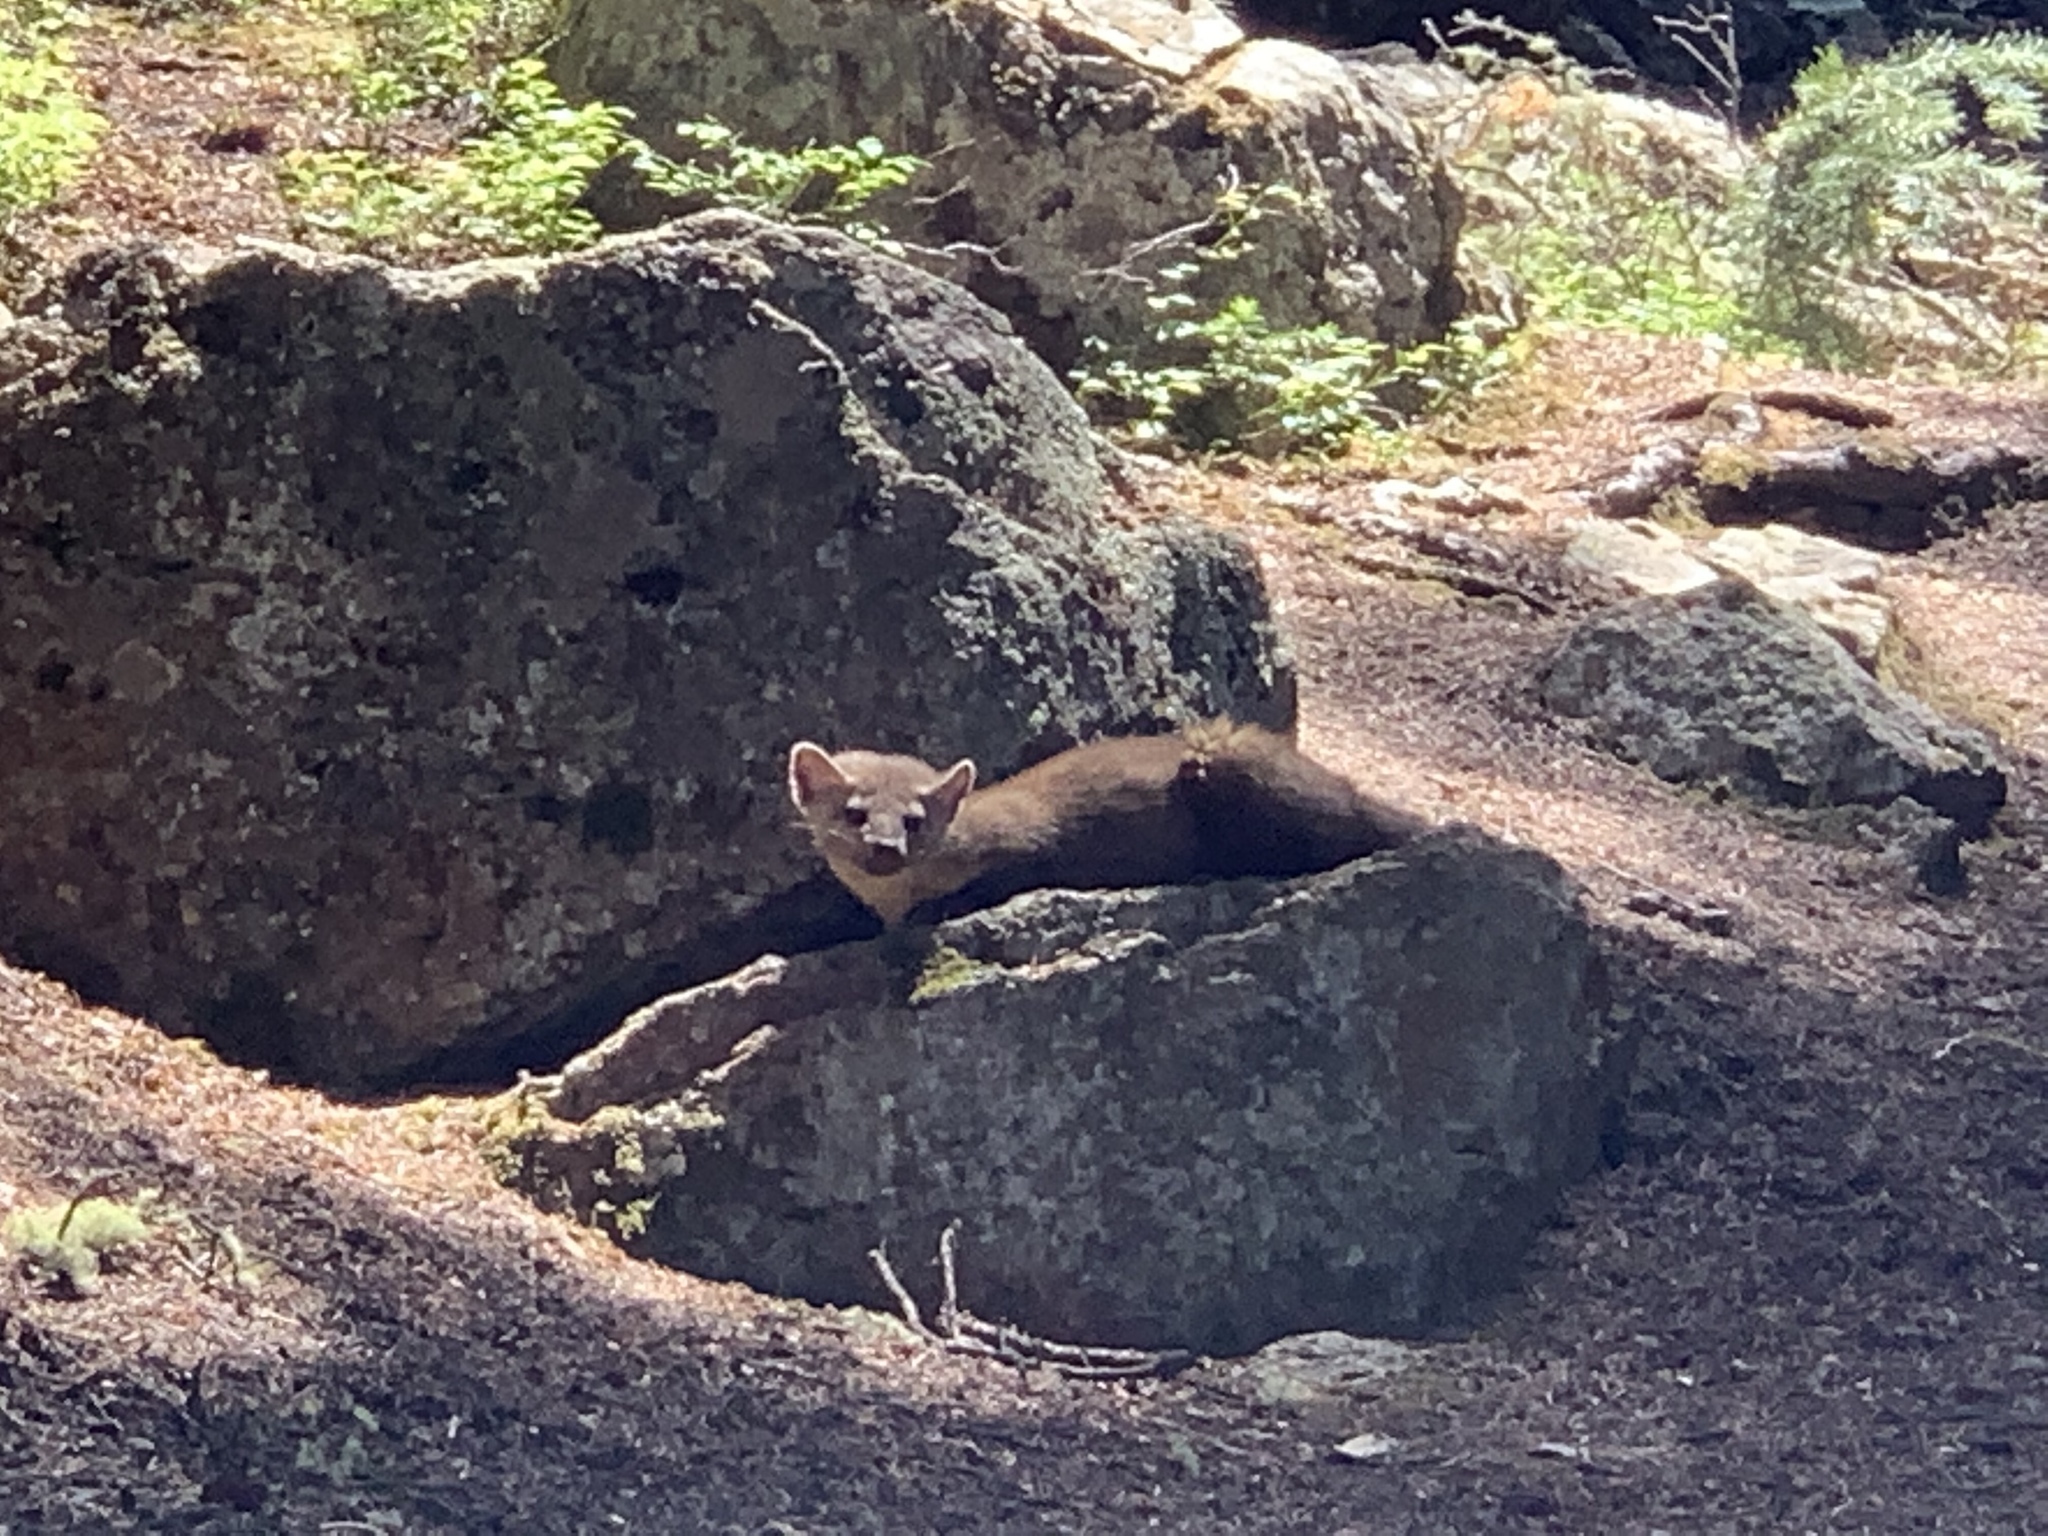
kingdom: Animalia
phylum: Chordata
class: Mammalia
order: Carnivora
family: Mustelidae
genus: Martes
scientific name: Martes caurina
